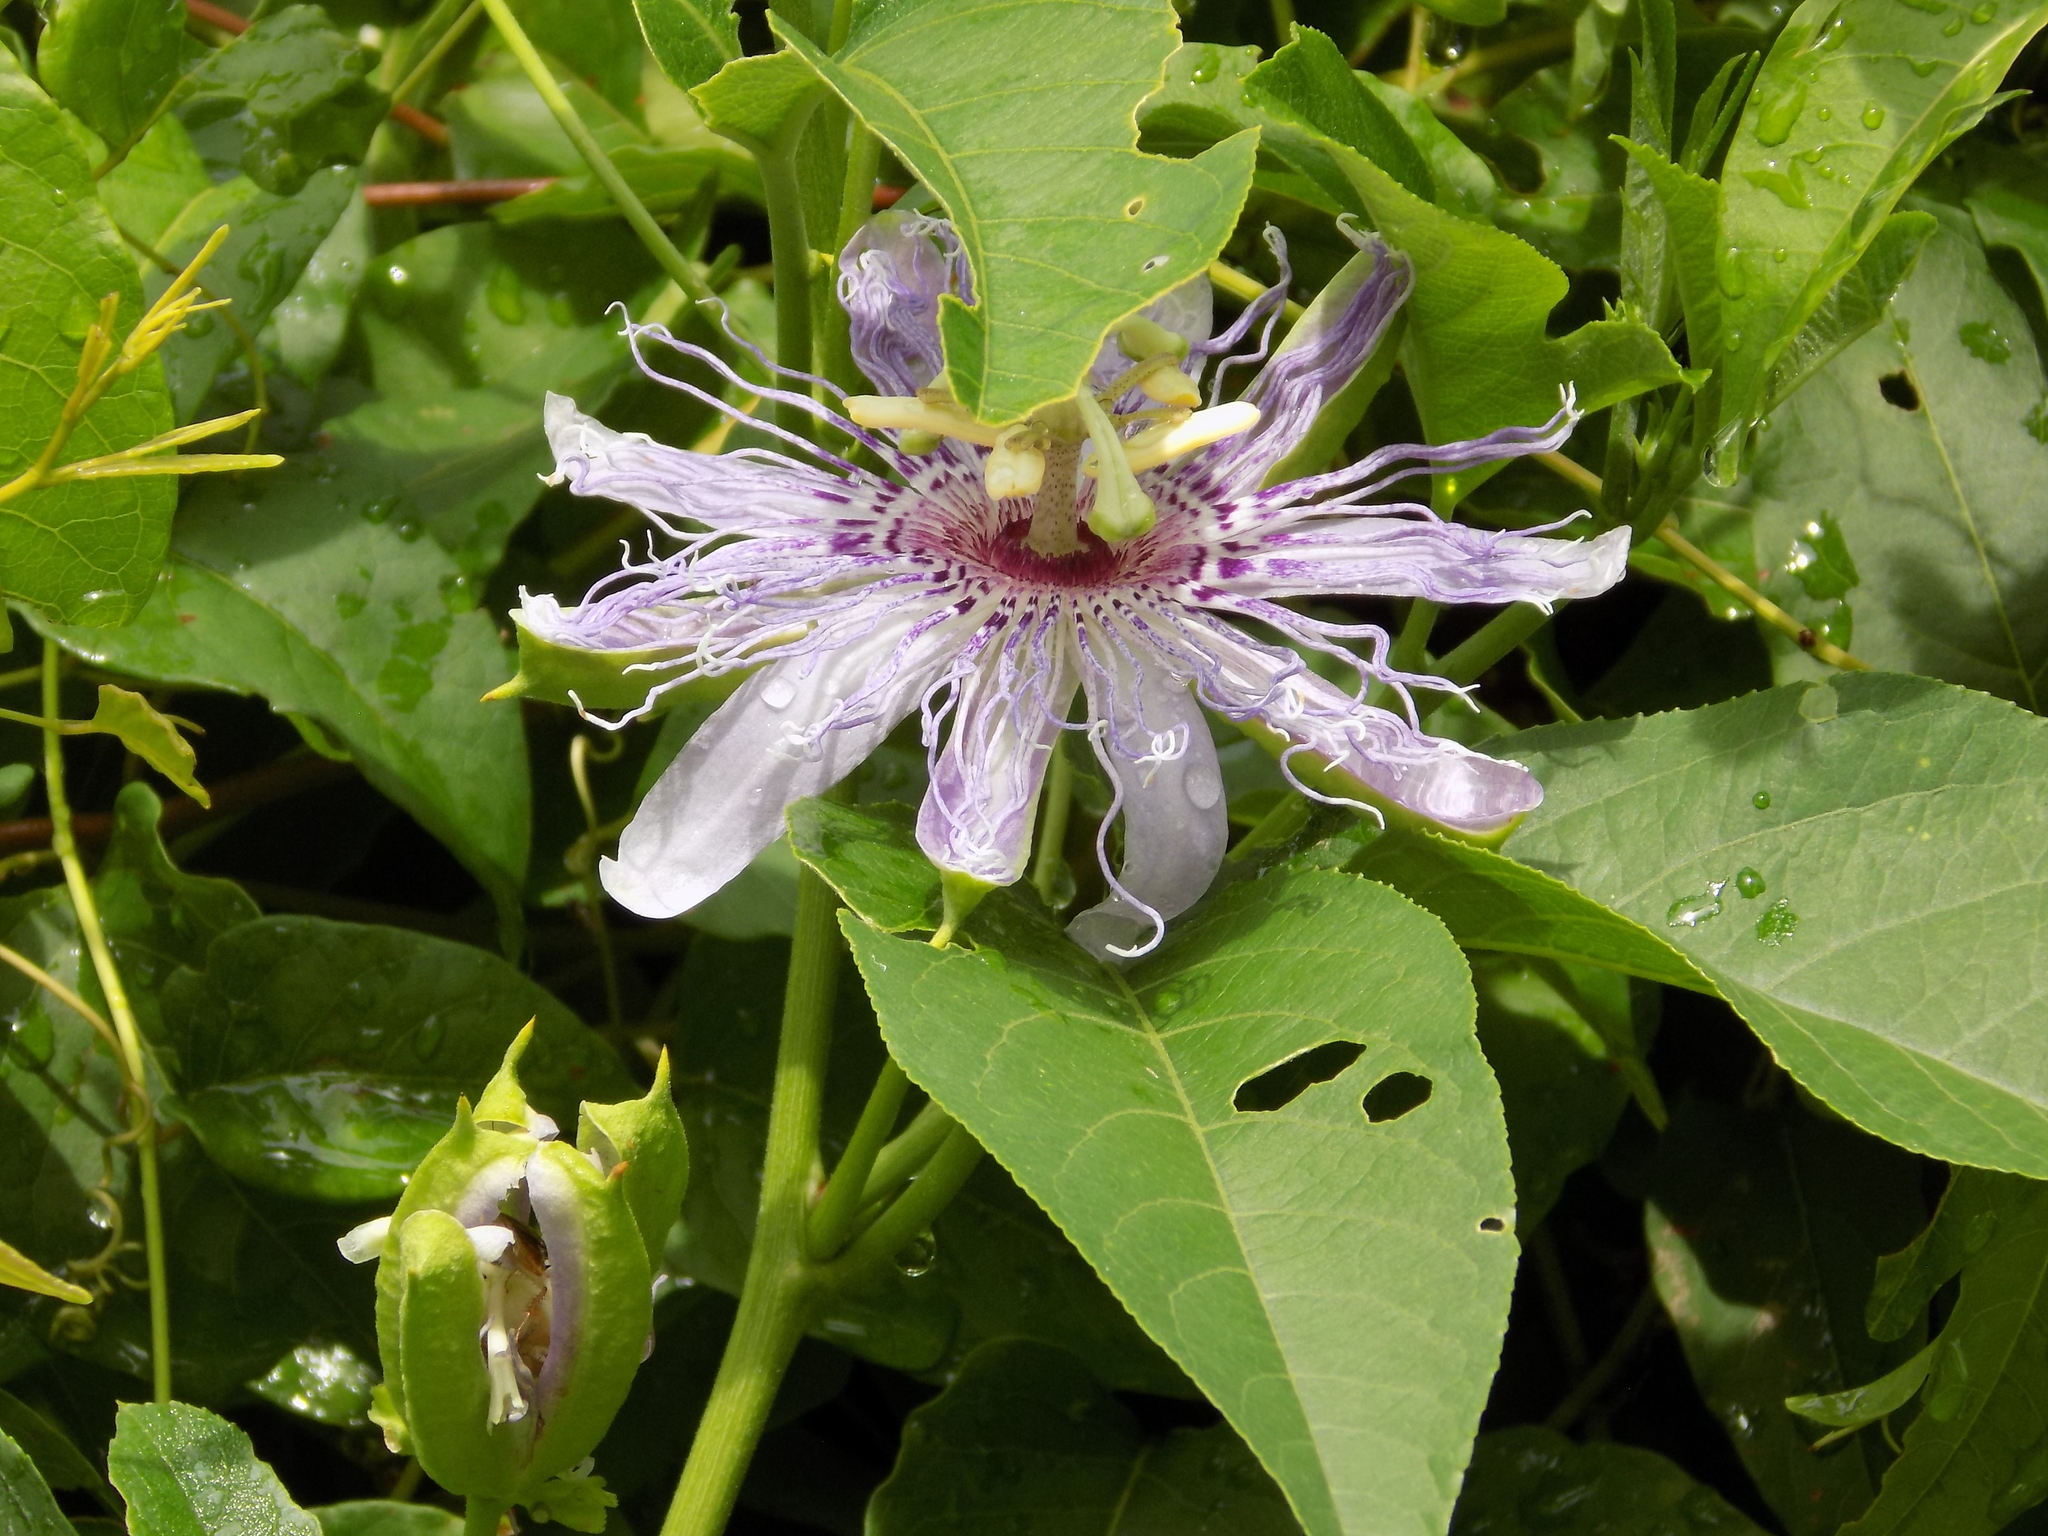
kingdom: Plantae
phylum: Tracheophyta
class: Magnoliopsida
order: Malpighiales
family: Passifloraceae
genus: Passiflora
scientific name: Passiflora incarnata
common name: Apricot-vine
